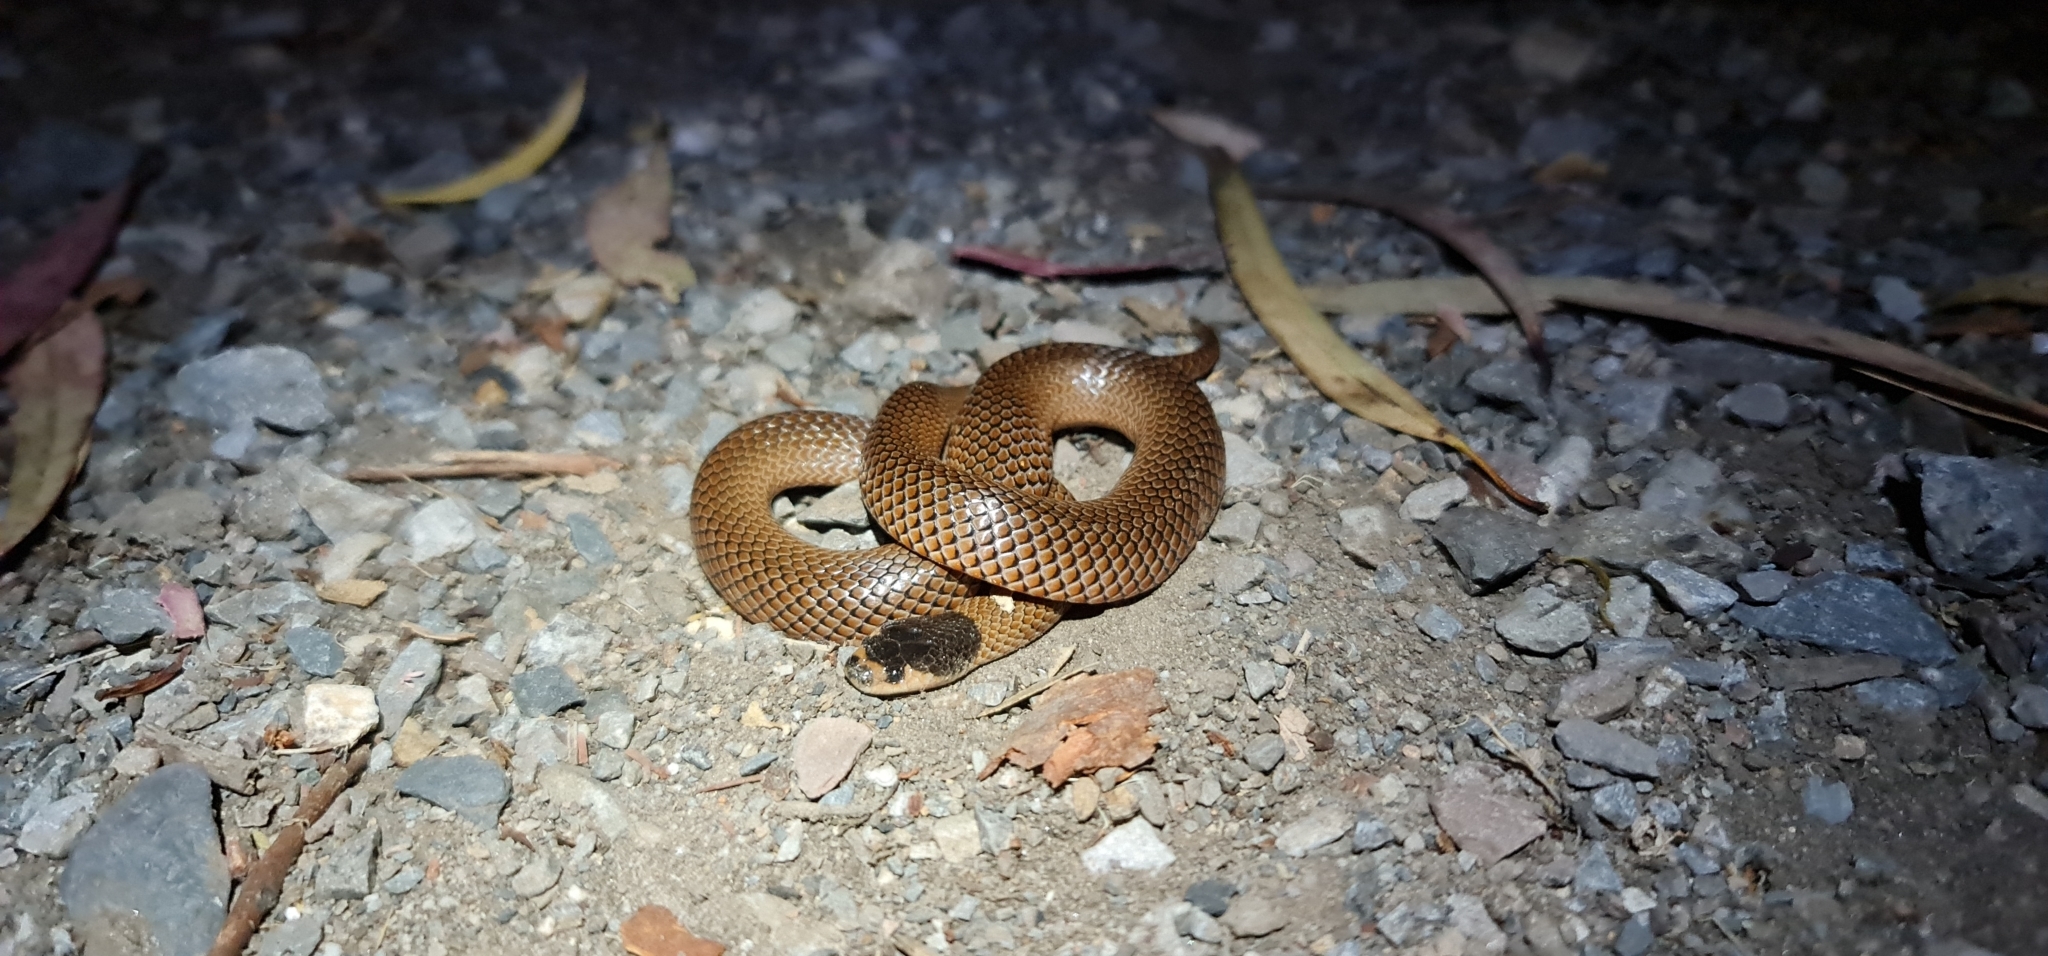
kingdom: Animalia
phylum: Chordata
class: Squamata
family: Elapidae
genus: Suta
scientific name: Suta flagellum
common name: Little whip snake
